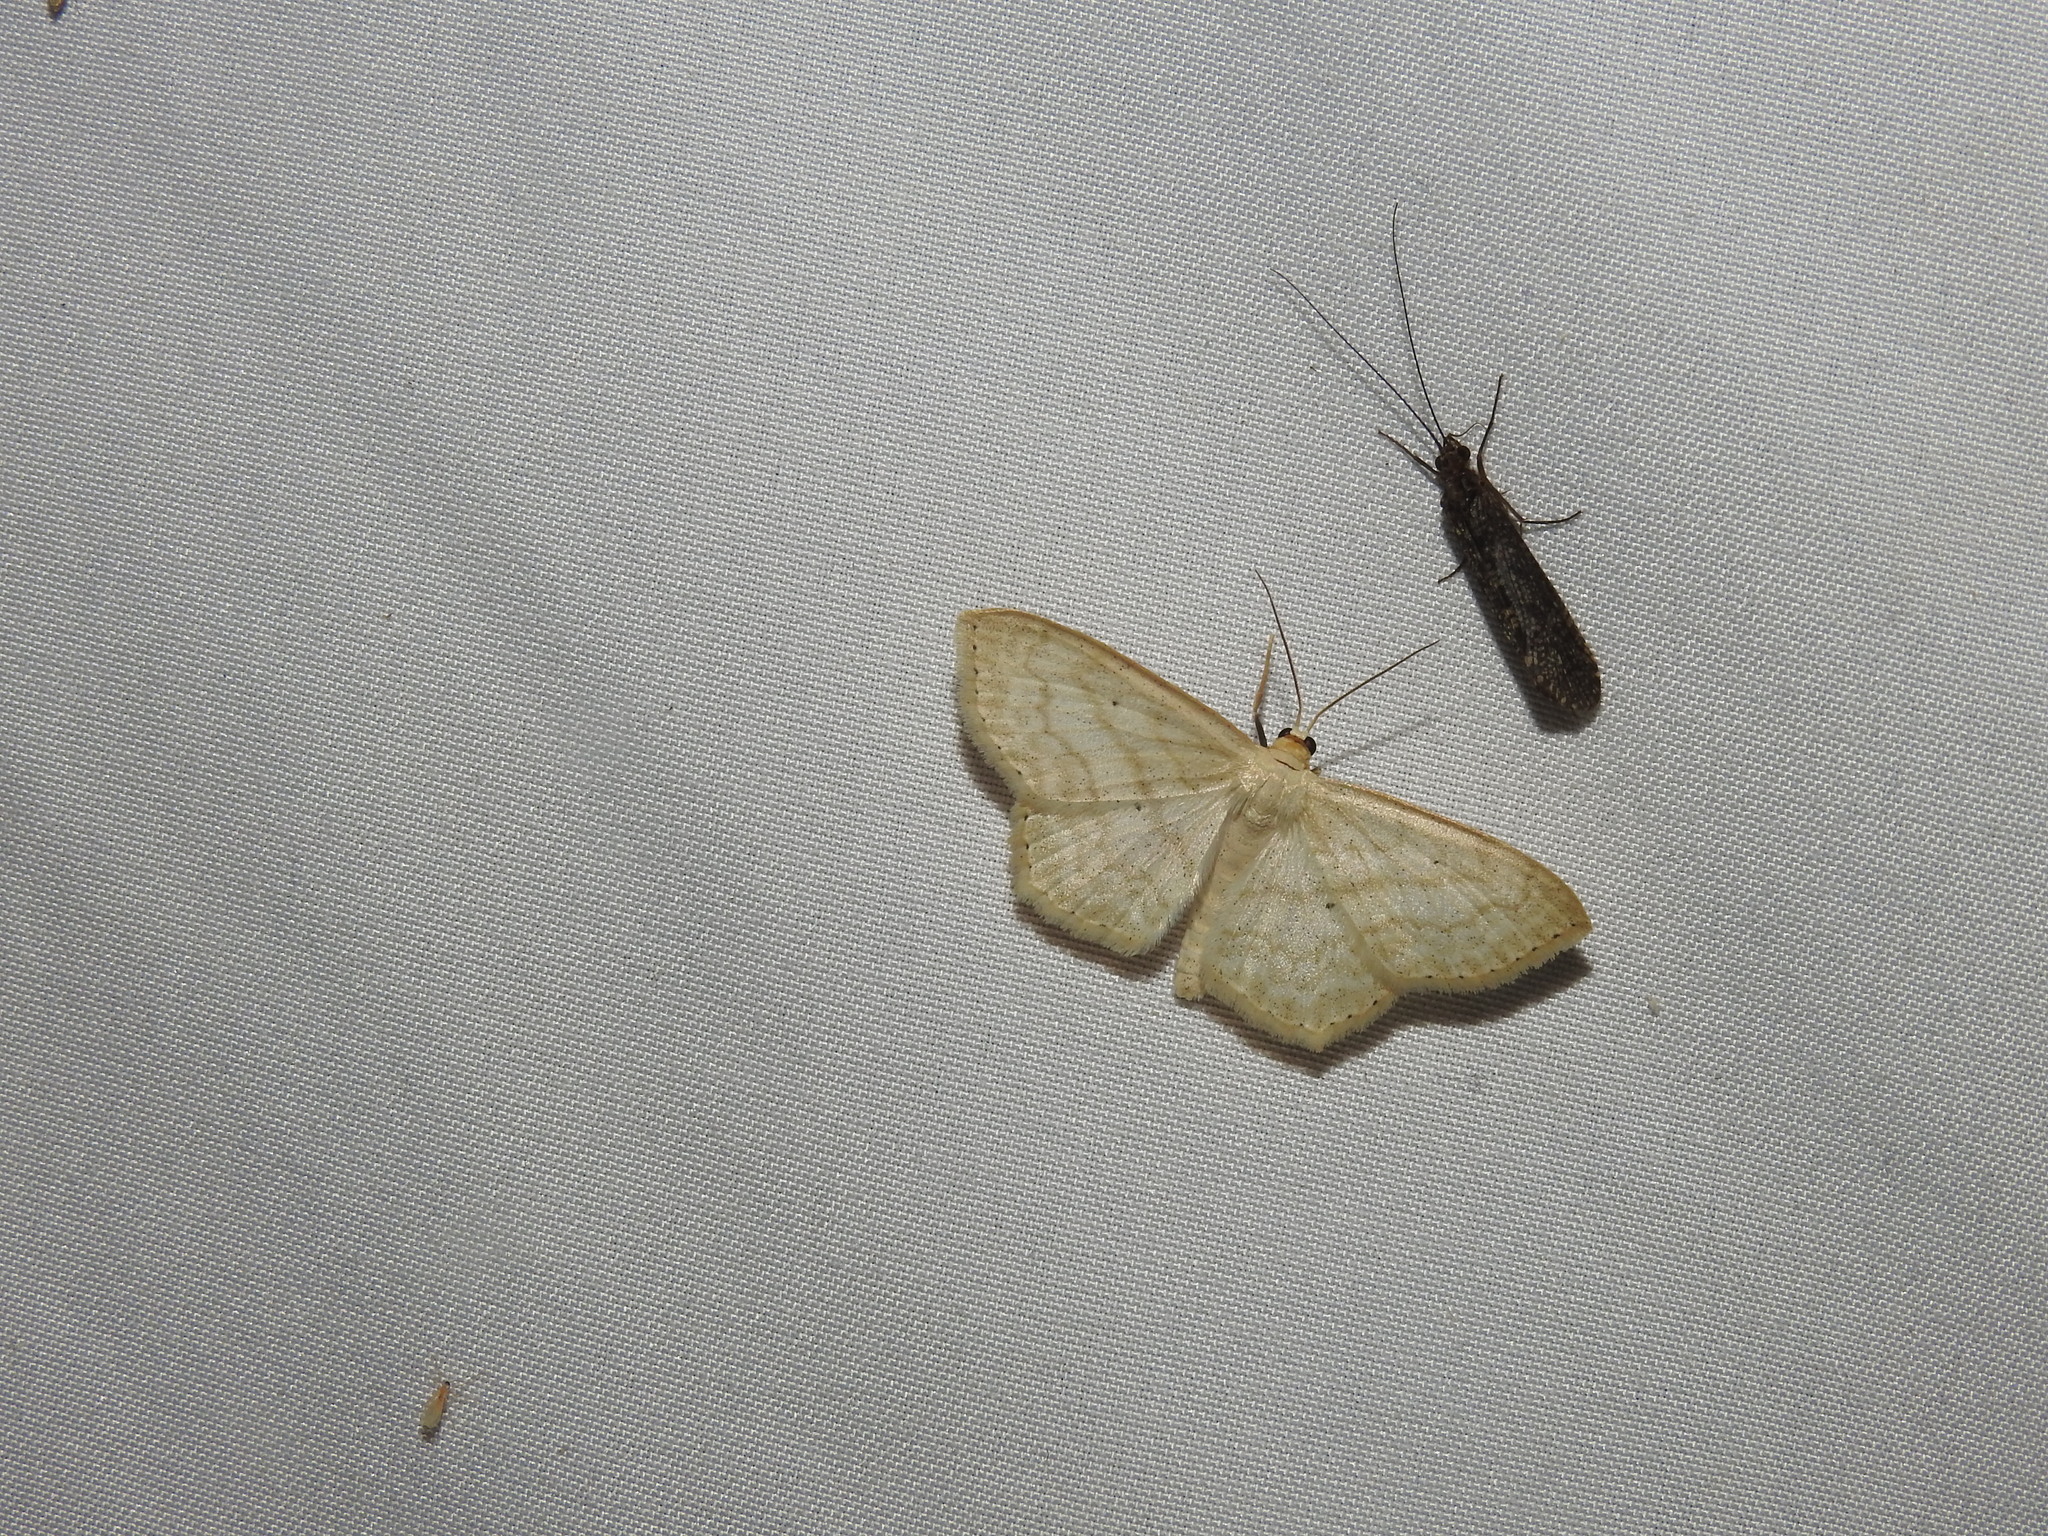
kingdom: Animalia
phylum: Arthropoda
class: Insecta
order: Lepidoptera
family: Geometridae
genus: Scopula
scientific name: Scopula limboundata
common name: Large lace border
